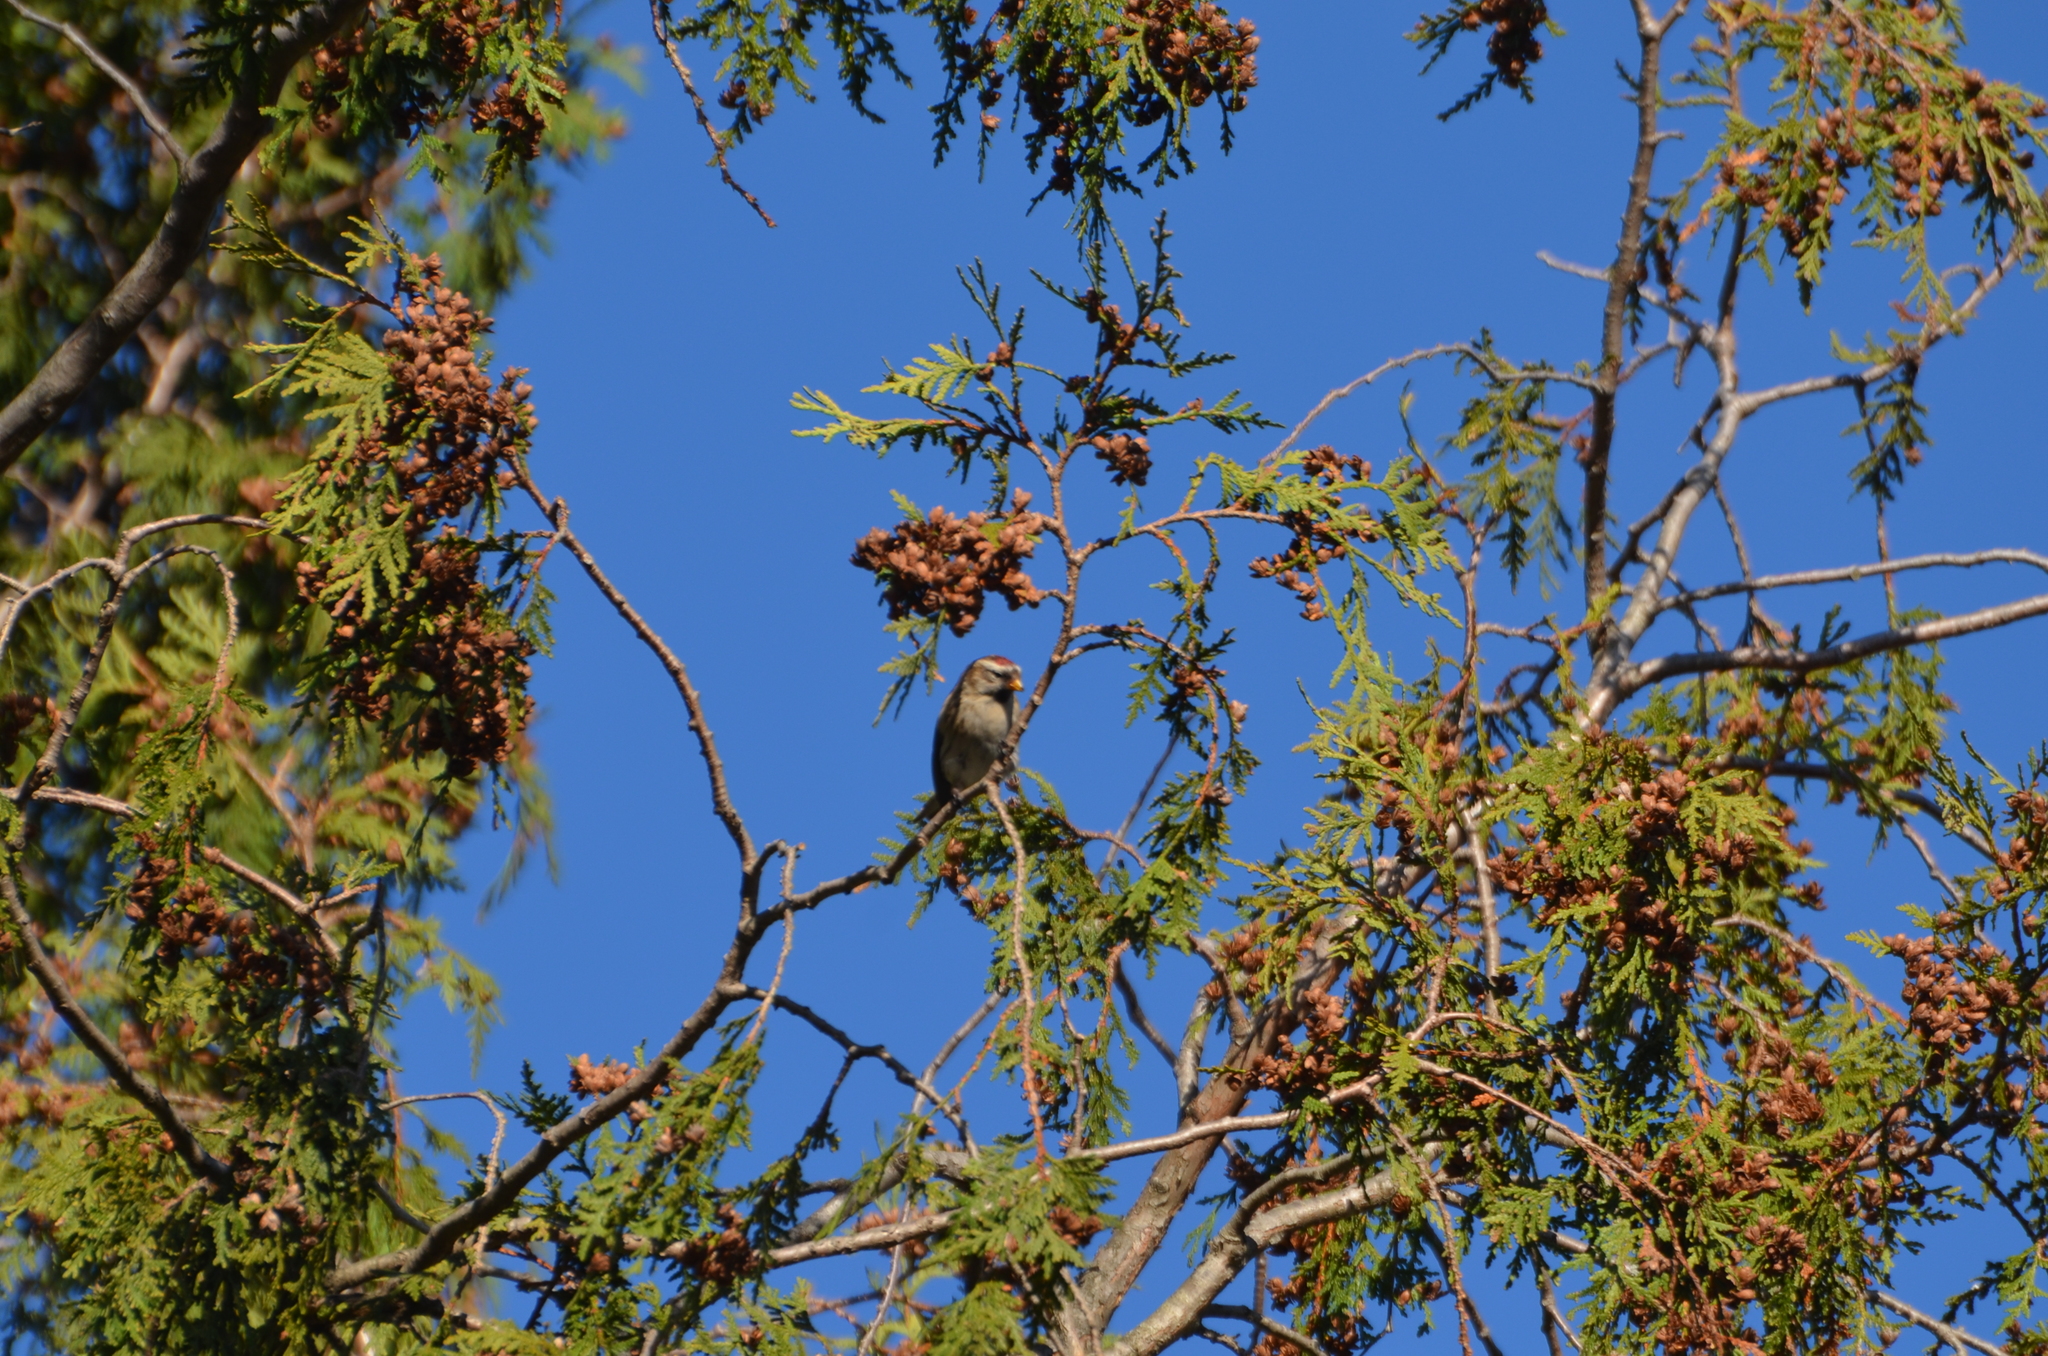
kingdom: Animalia
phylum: Chordata
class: Aves
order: Passeriformes
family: Fringillidae
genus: Acanthis
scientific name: Acanthis flammea
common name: Common redpoll
